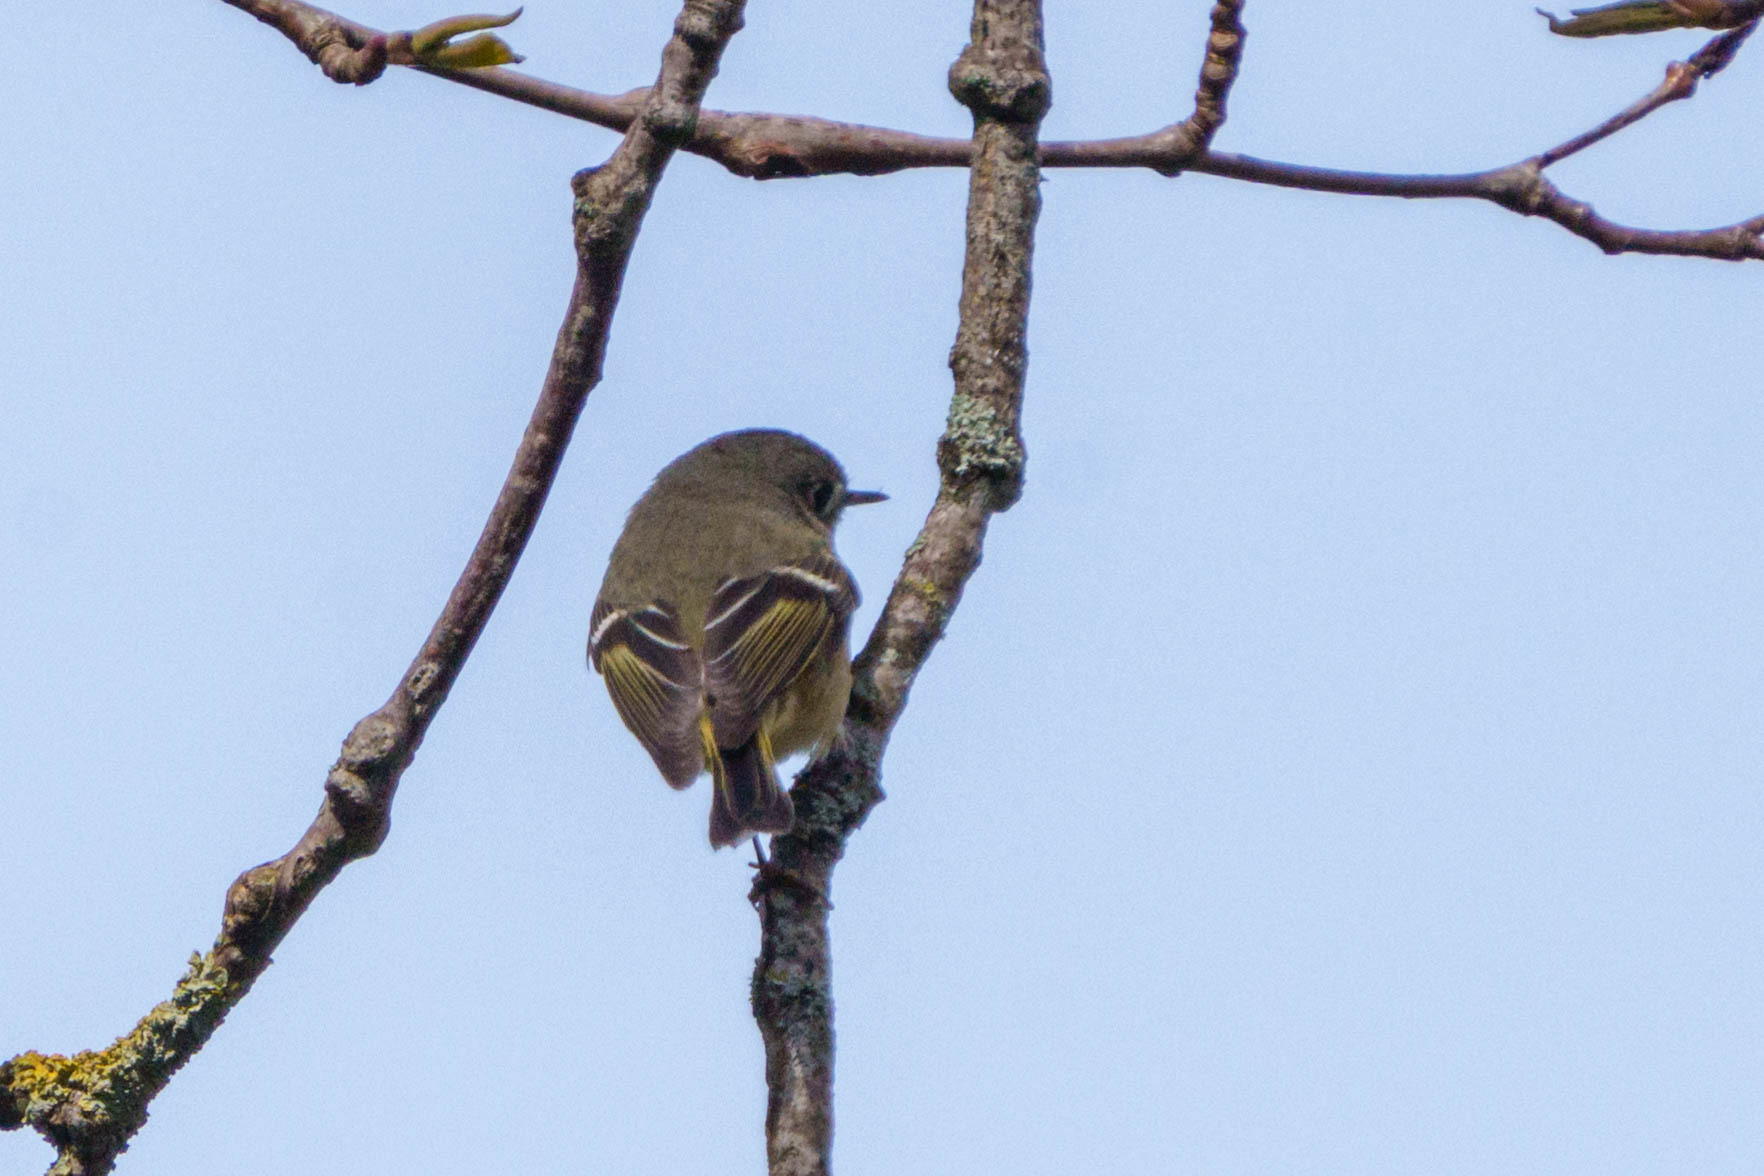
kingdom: Animalia
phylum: Chordata
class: Aves
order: Passeriformes
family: Regulidae
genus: Regulus
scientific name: Regulus calendula
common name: Ruby-crowned kinglet
